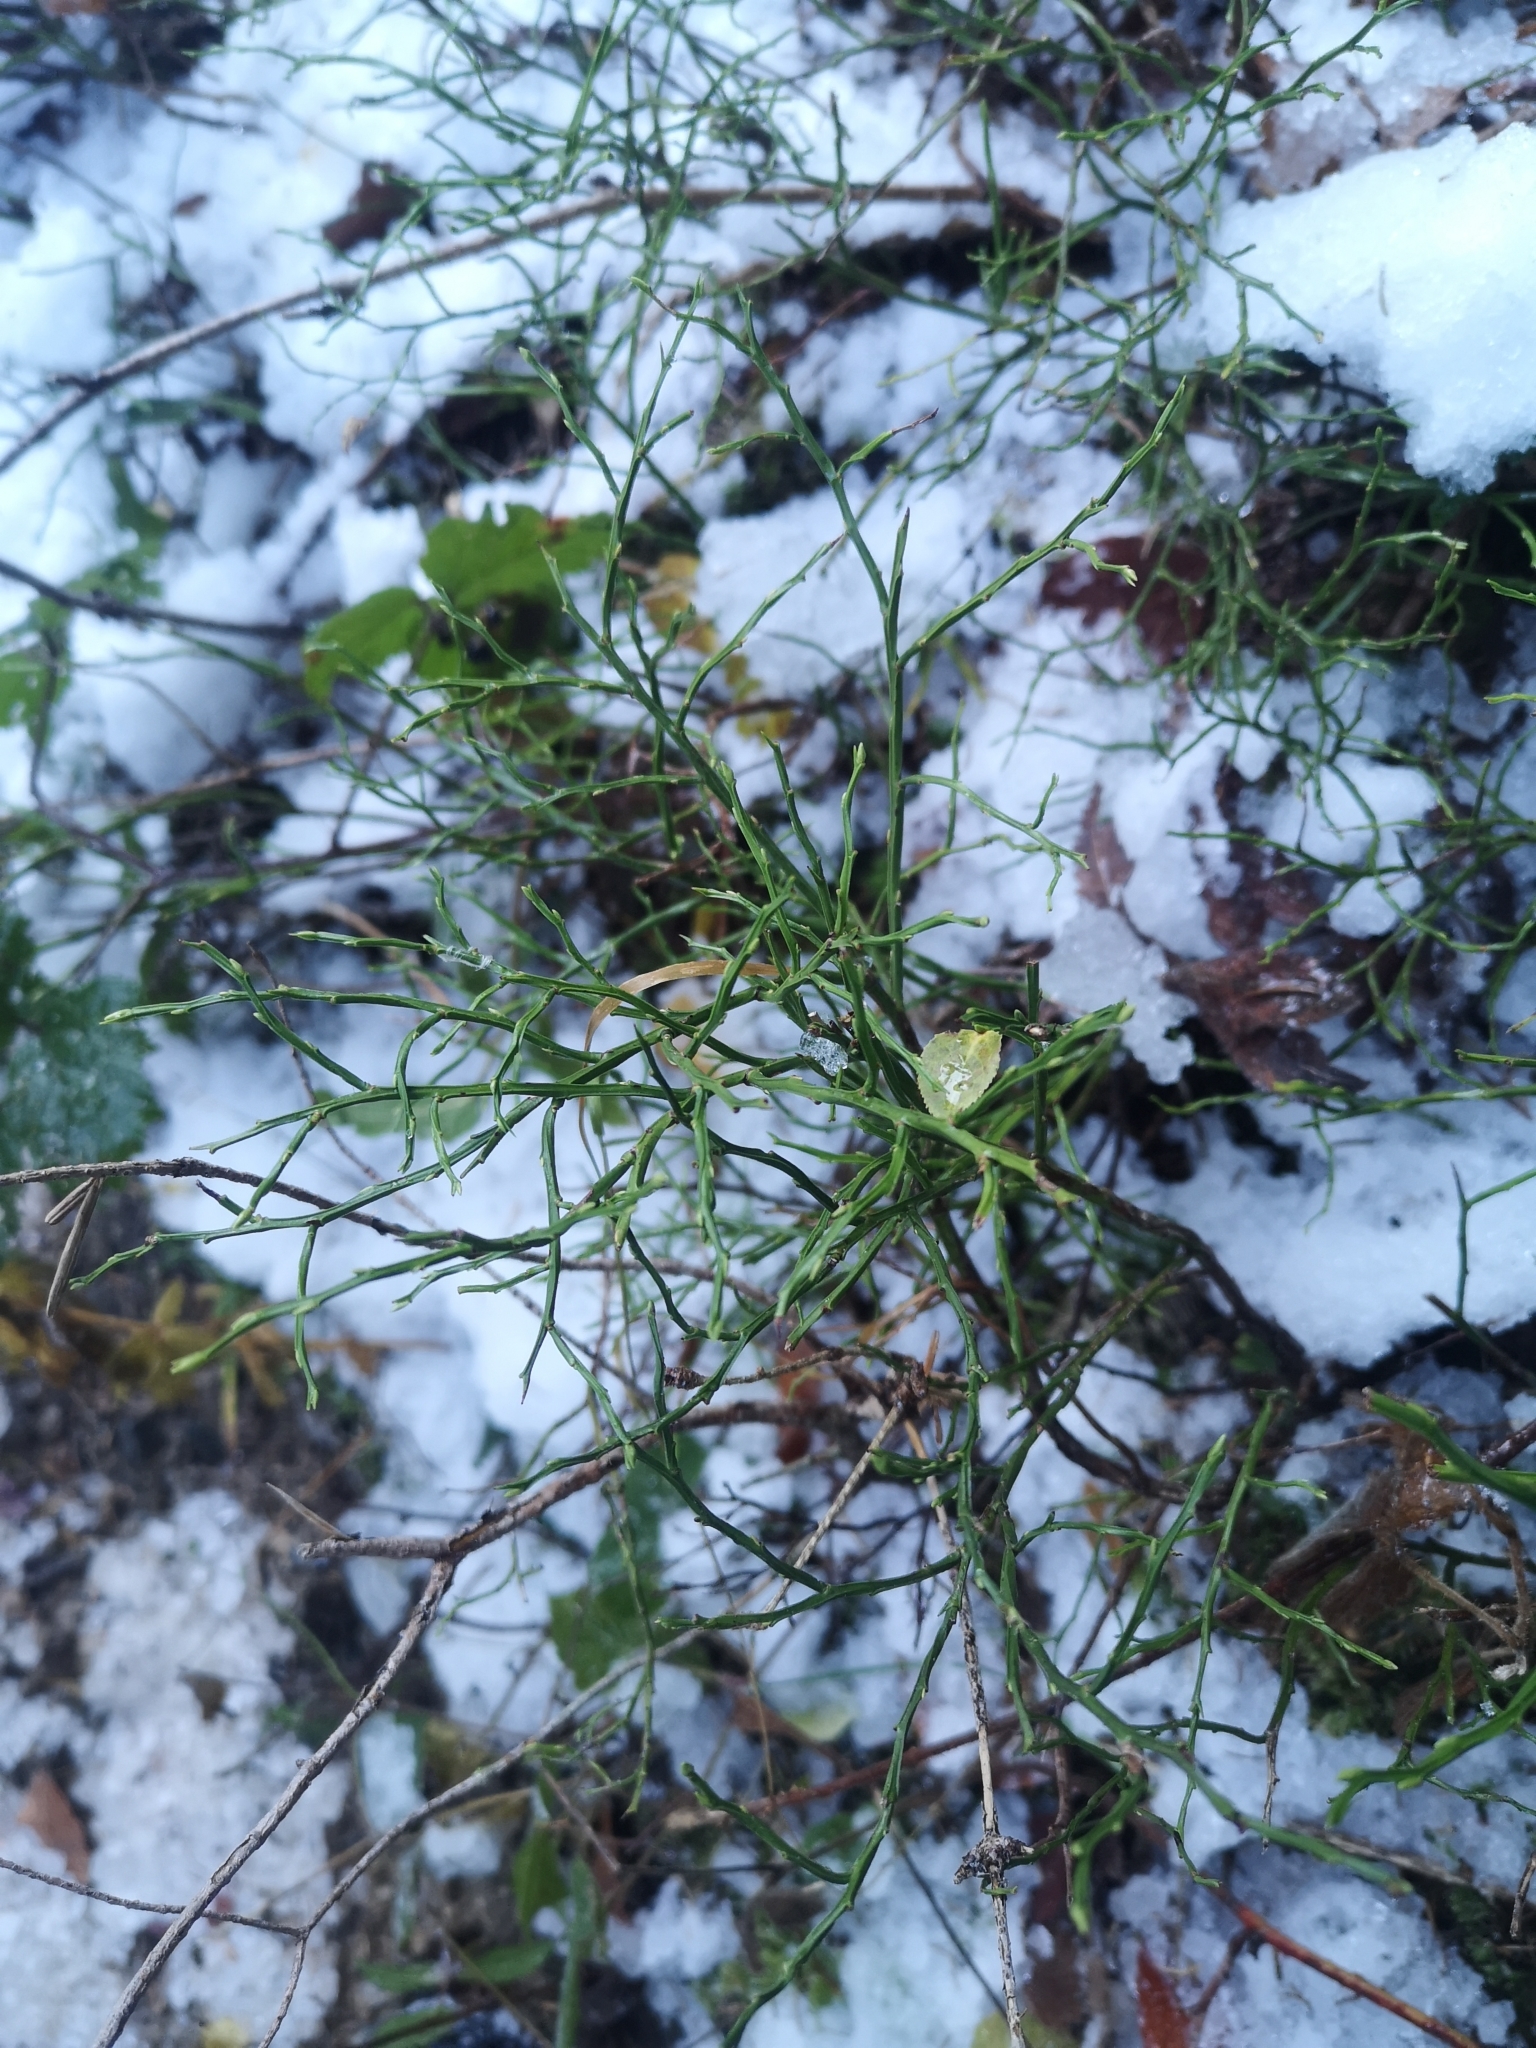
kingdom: Plantae
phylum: Tracheophyta
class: Magnoliopsida
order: Ericales
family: Ericaceae
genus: Vaccinium
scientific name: Vaccinium myrtillus
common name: Bilberry
